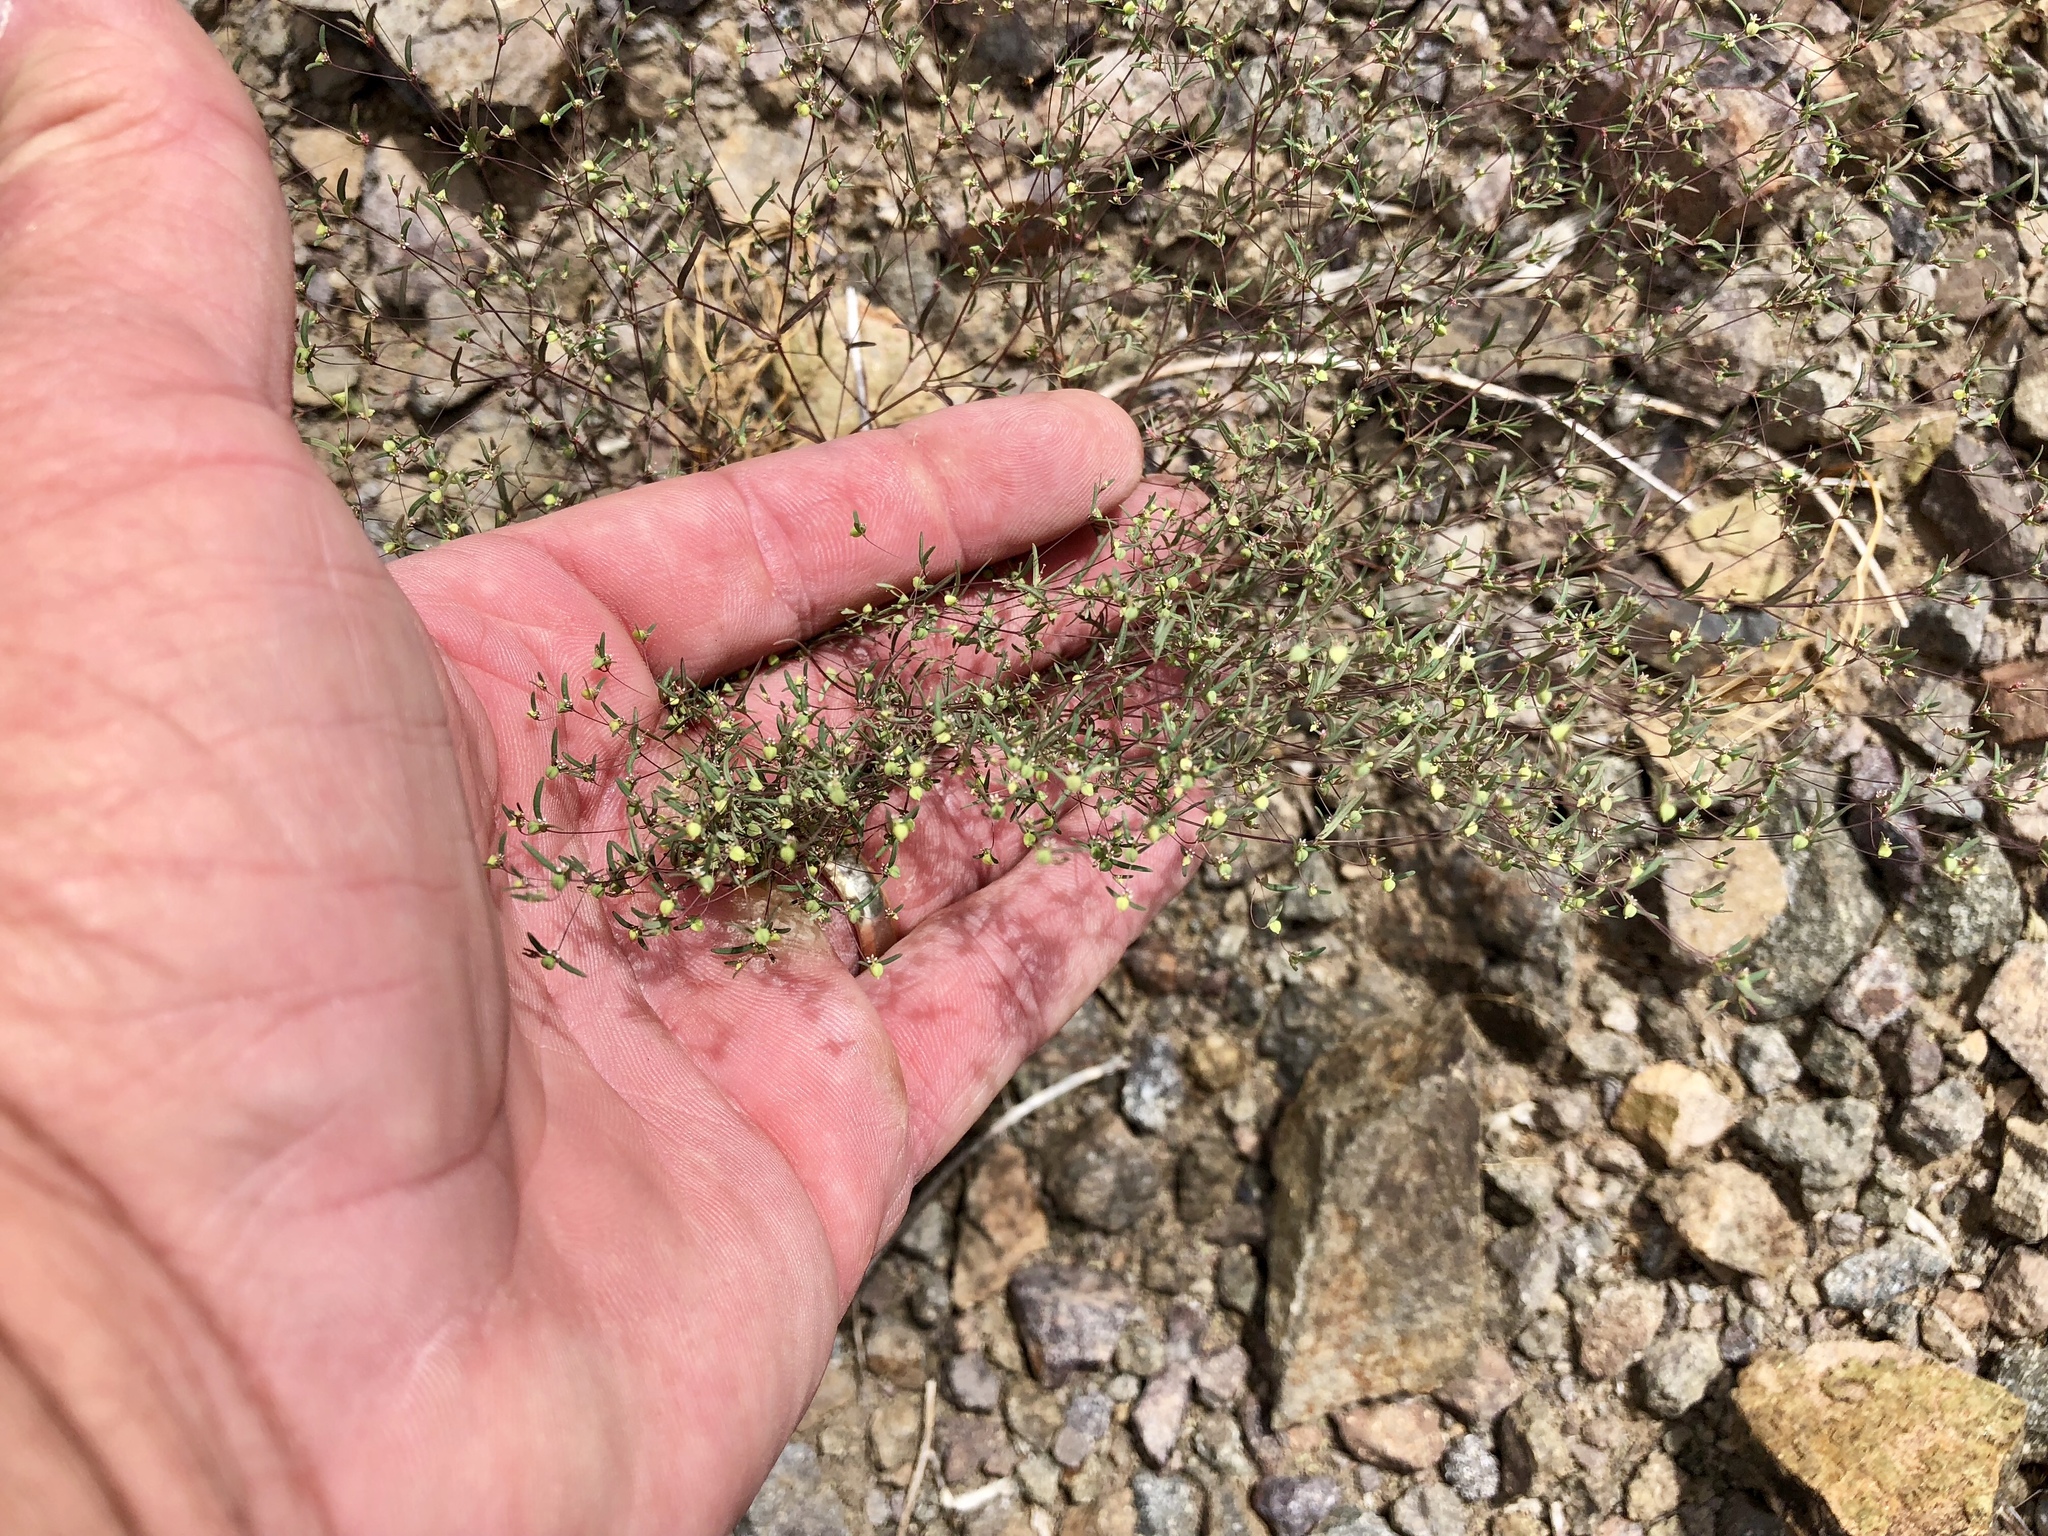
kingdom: Plantae
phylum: Tracheophyta
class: Magnoliopsida
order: Malpighiales
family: Euphorbiaceae
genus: Euphorbia
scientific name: Euphorbia gracillima
